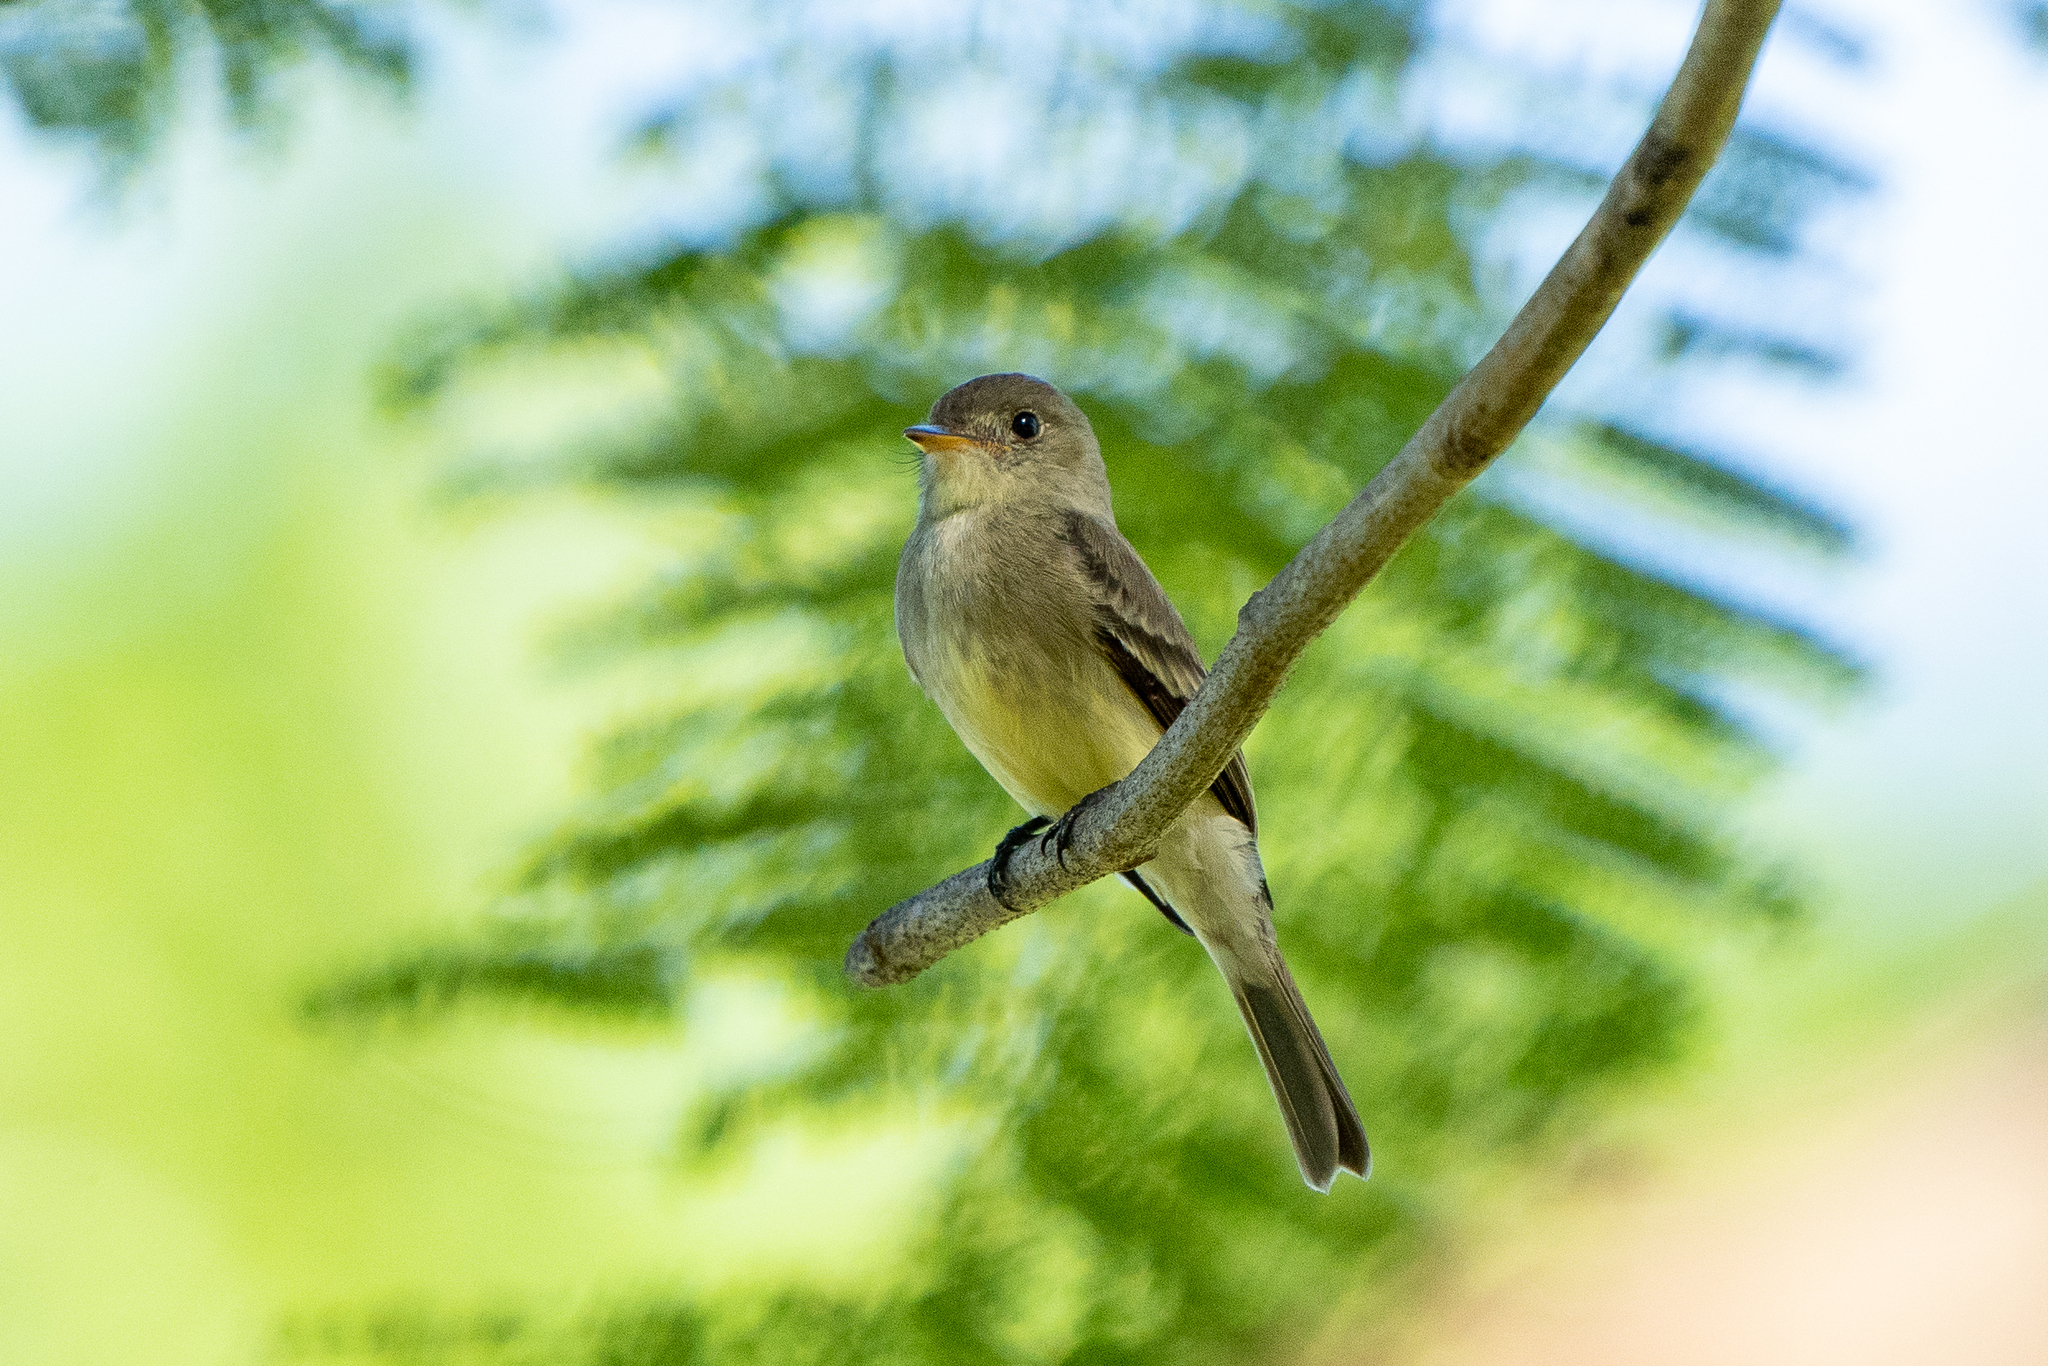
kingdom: Animalia
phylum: Chordata
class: Aves
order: Passeriformes
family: Tyrannidae
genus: Contopus
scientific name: Contopus cinereus
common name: Tropical pewee
